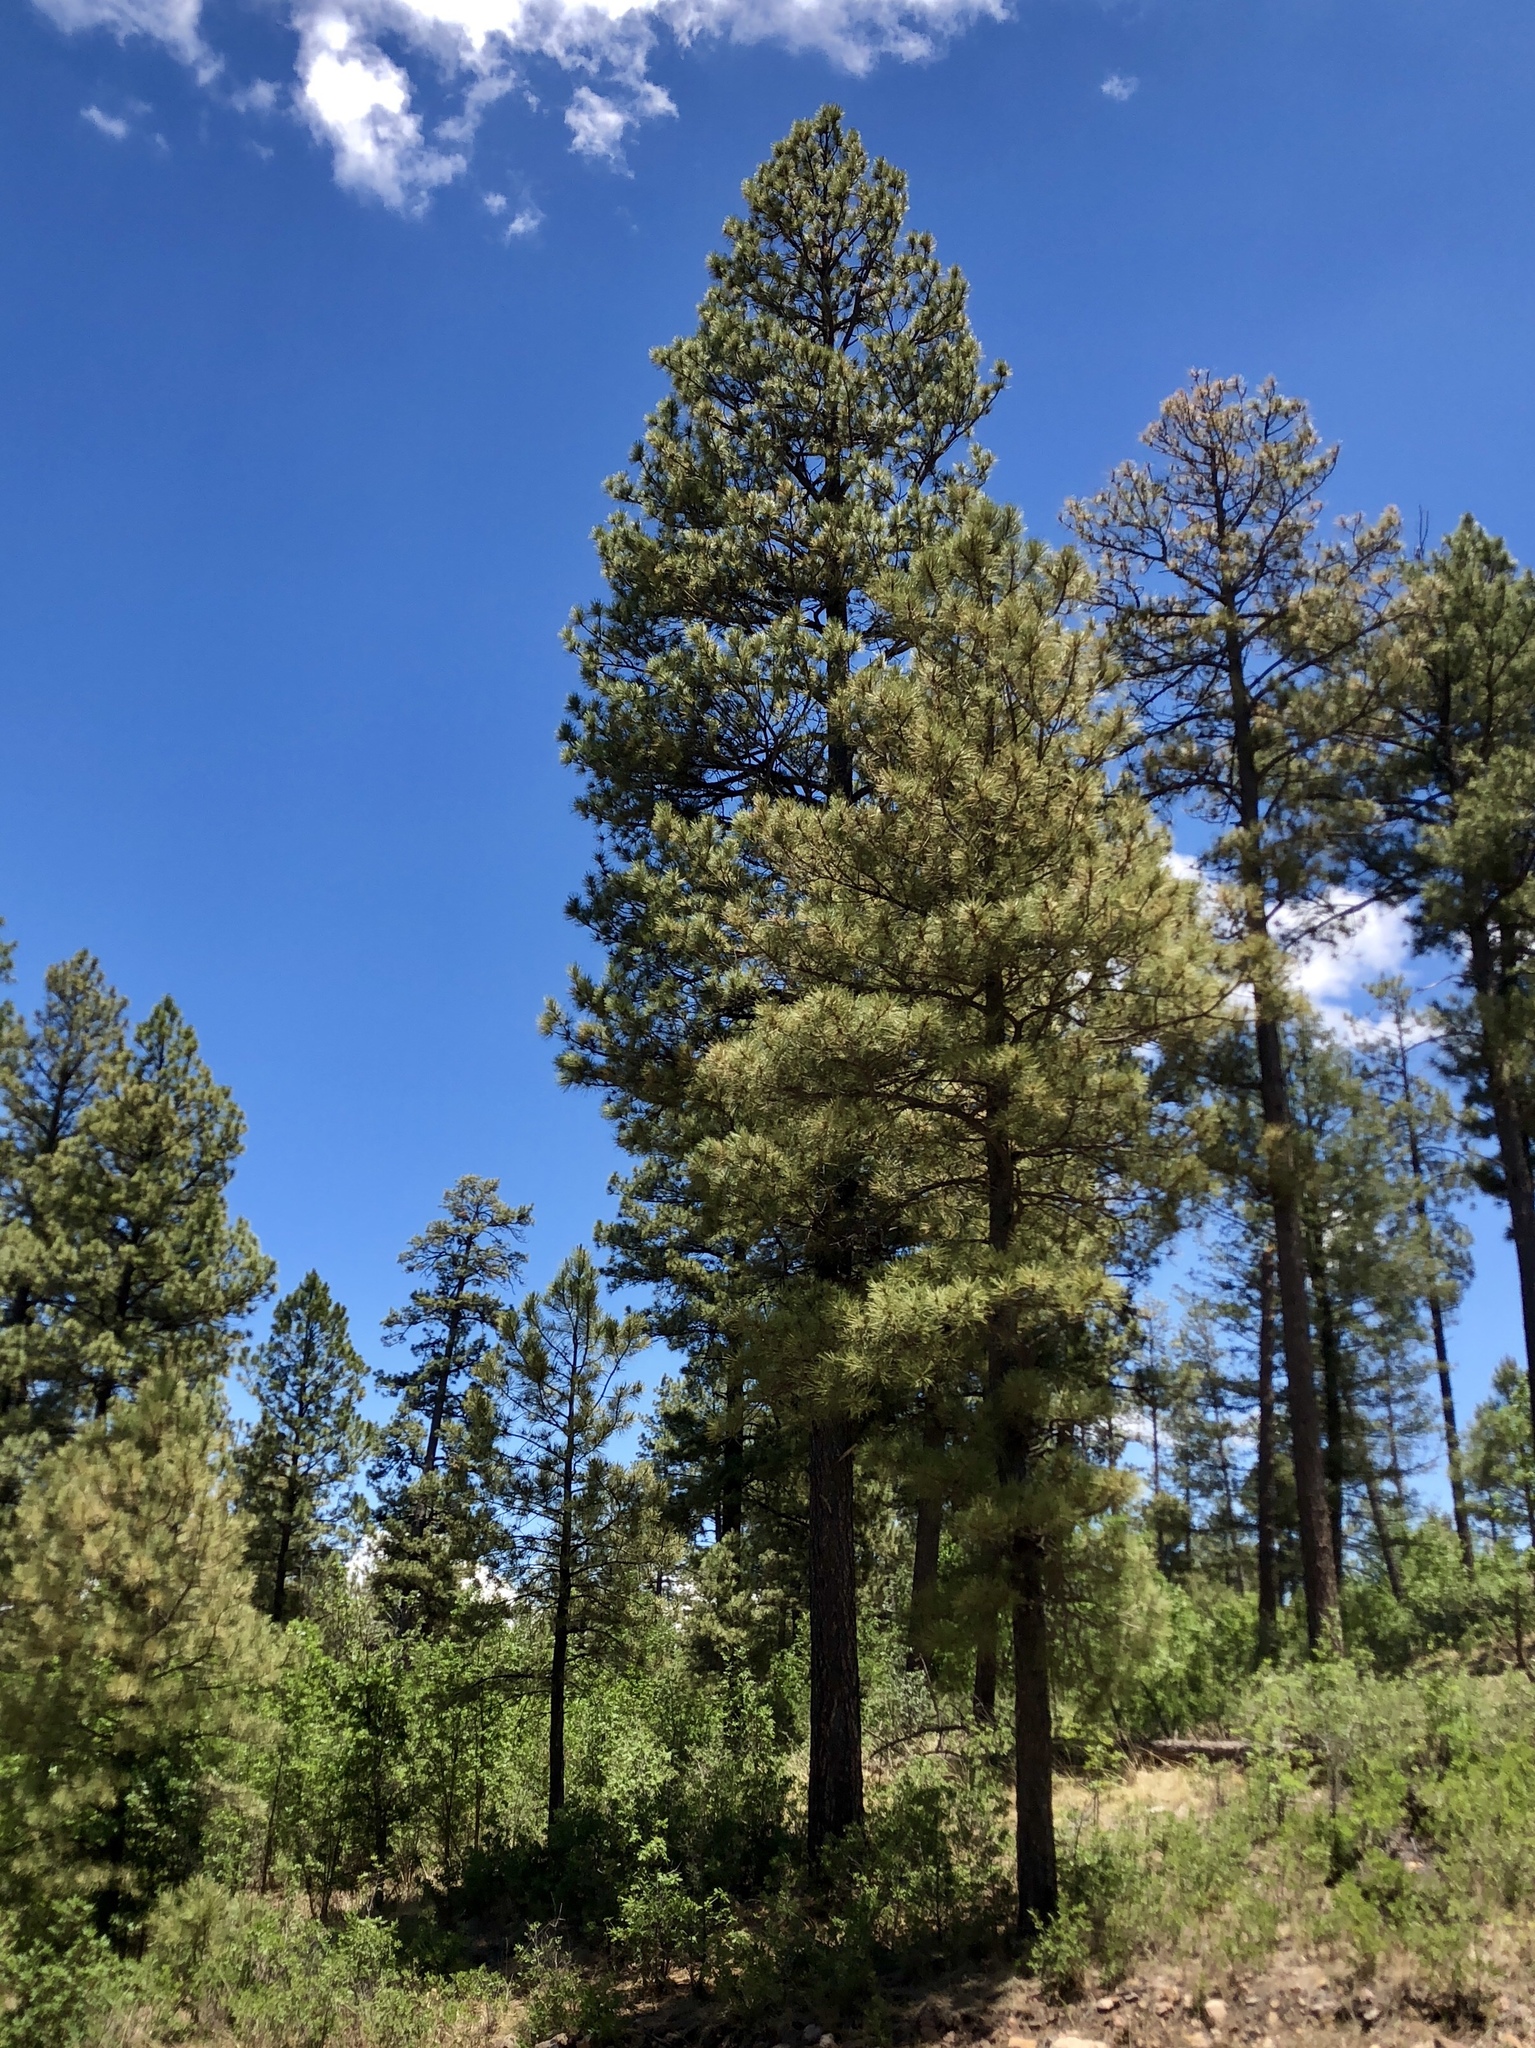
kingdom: Plantae
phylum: Tracheophyta
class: Pinopsida
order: Pinales
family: Pinaceae
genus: Pinus
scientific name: Pinus ponderosa
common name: Western yellow-pine
